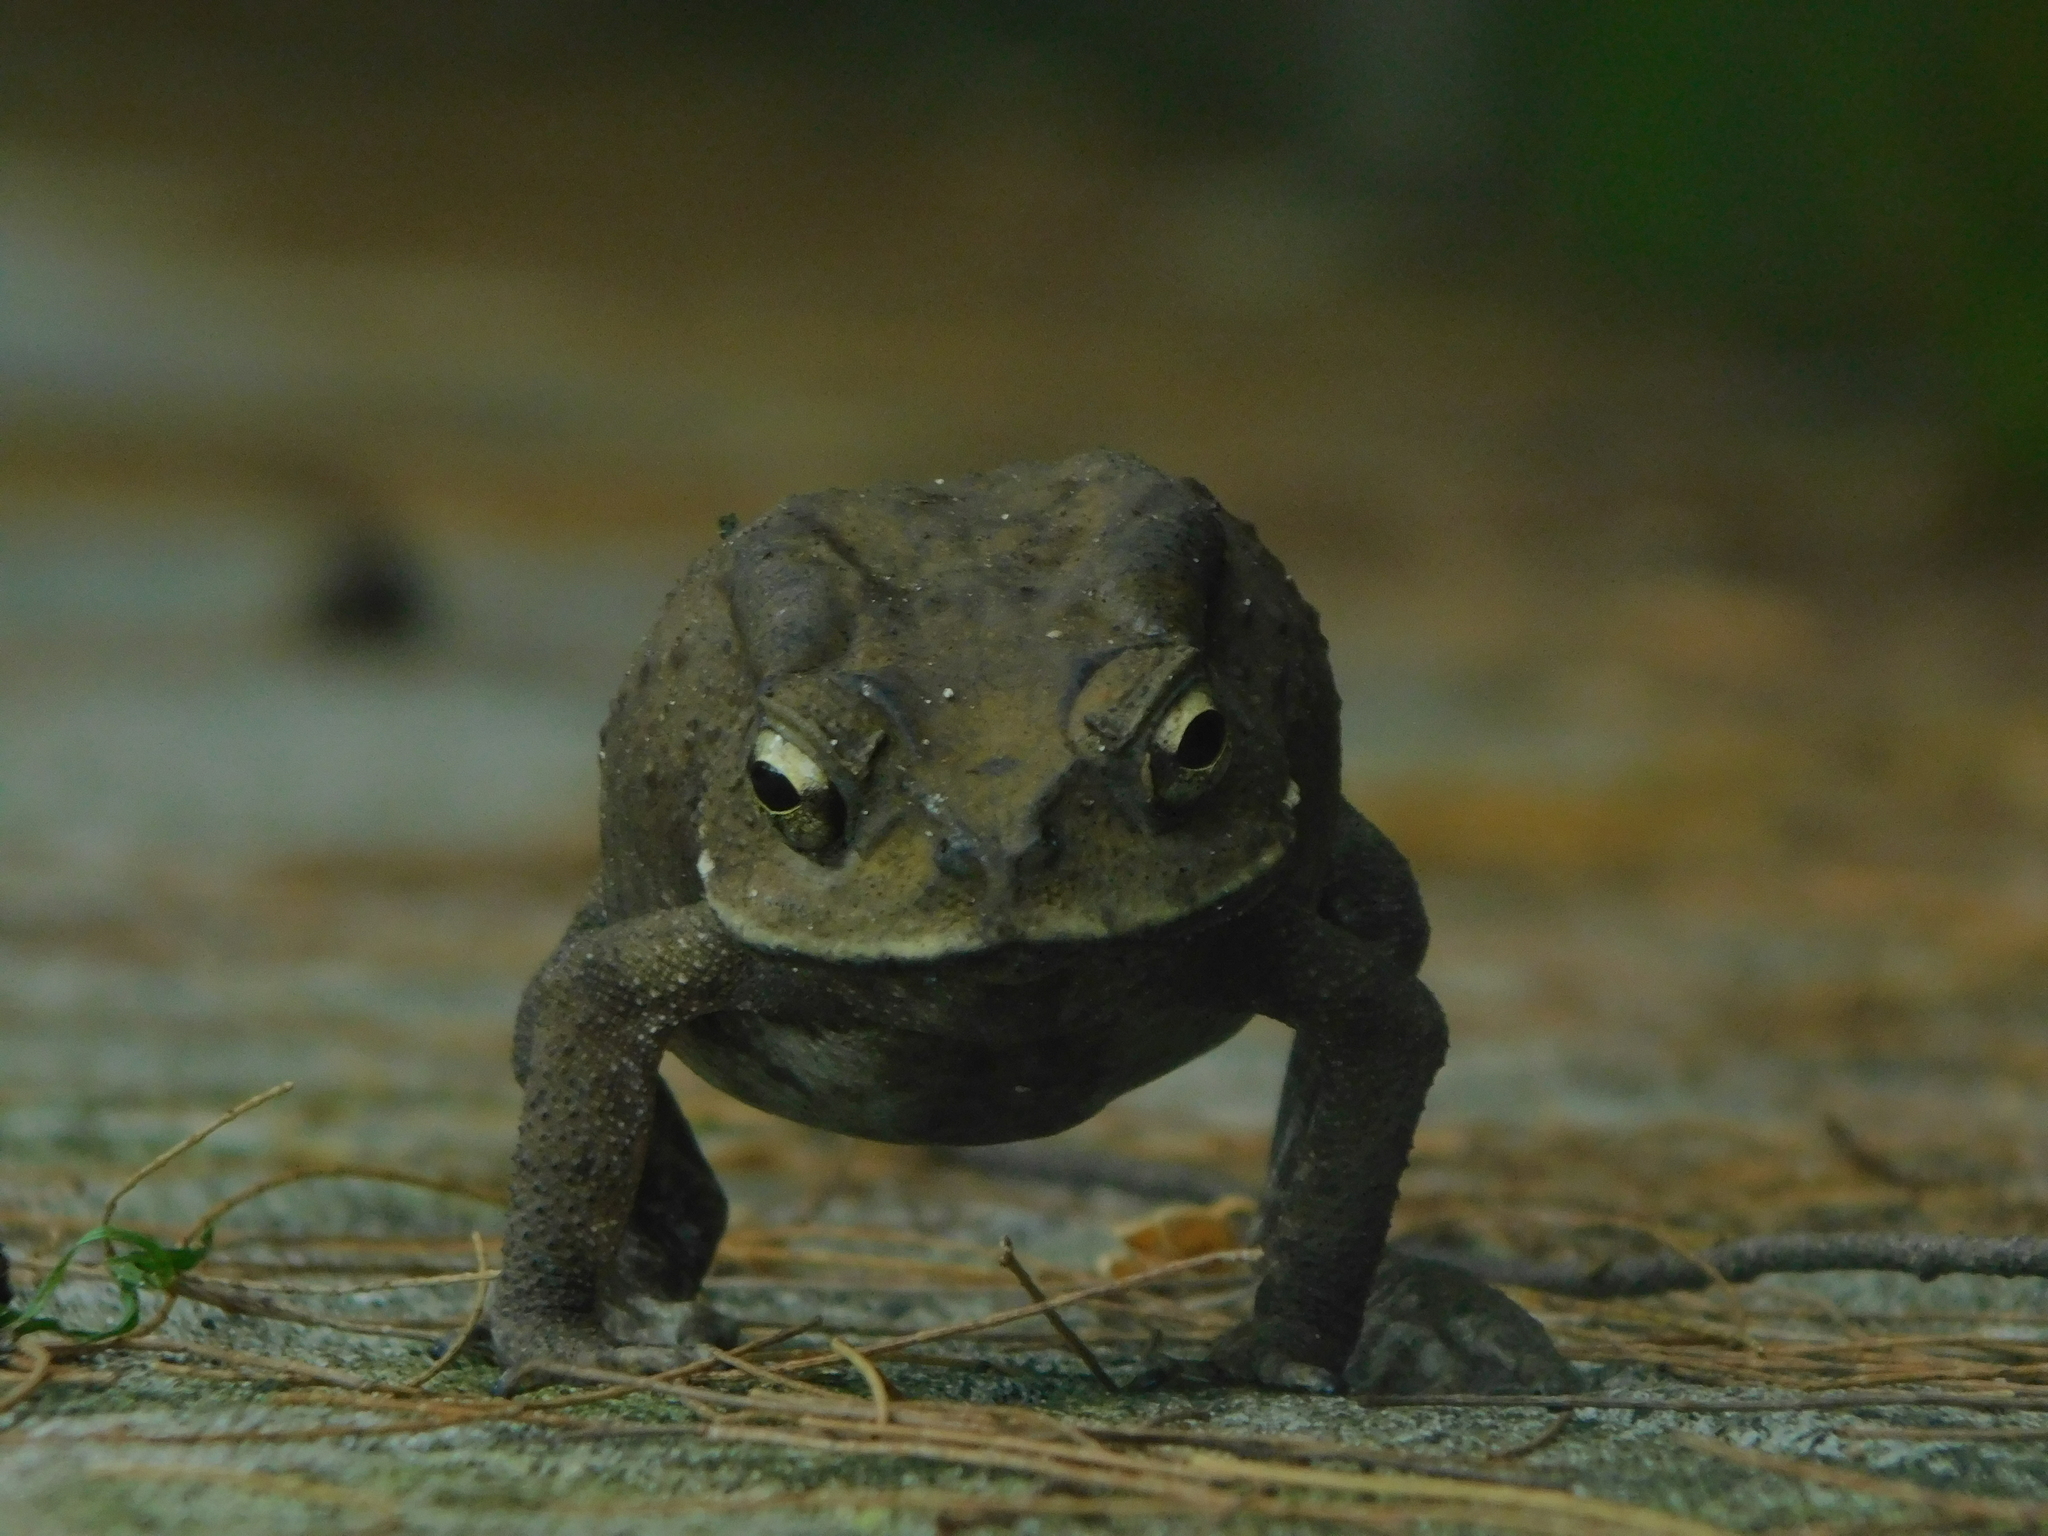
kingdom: Animalia
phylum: Chordata
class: Amphibia
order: Anura
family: Bufonidae
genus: Duttaphrynus
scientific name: Duttaphrynus melanostictus
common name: Common sunda toad
